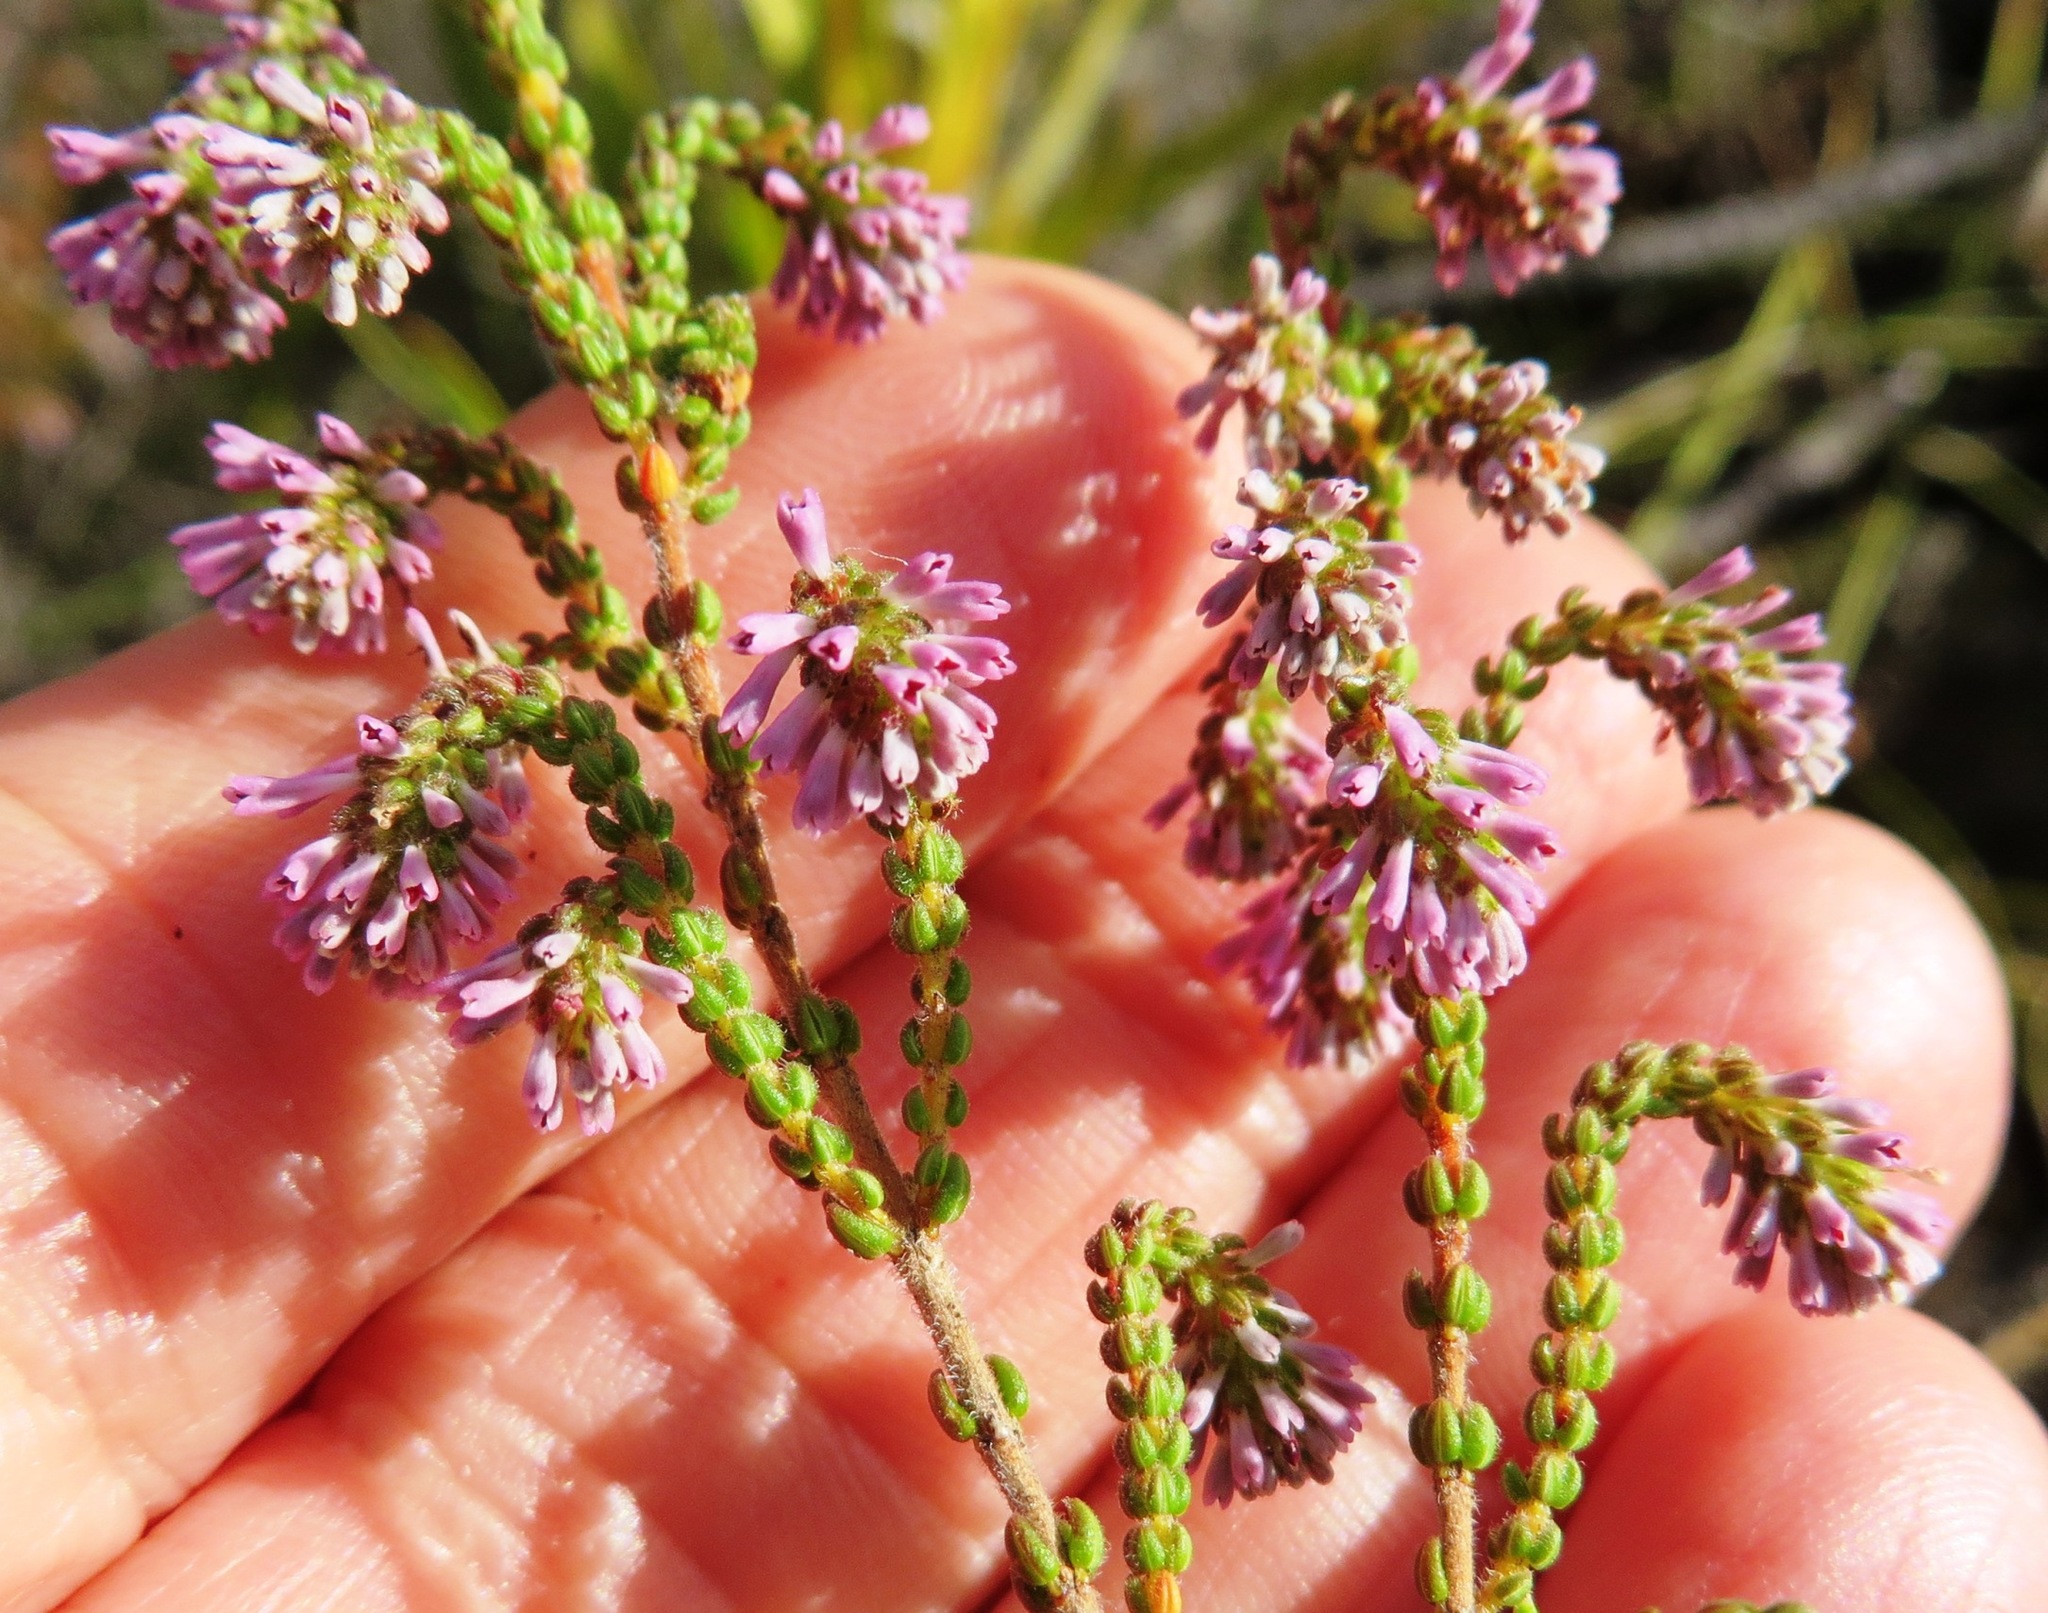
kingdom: Plantae
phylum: Tracheophyta
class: Magnoliopsida
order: Ericales
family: Ericaceae
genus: Erica
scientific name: Erica globiceps
